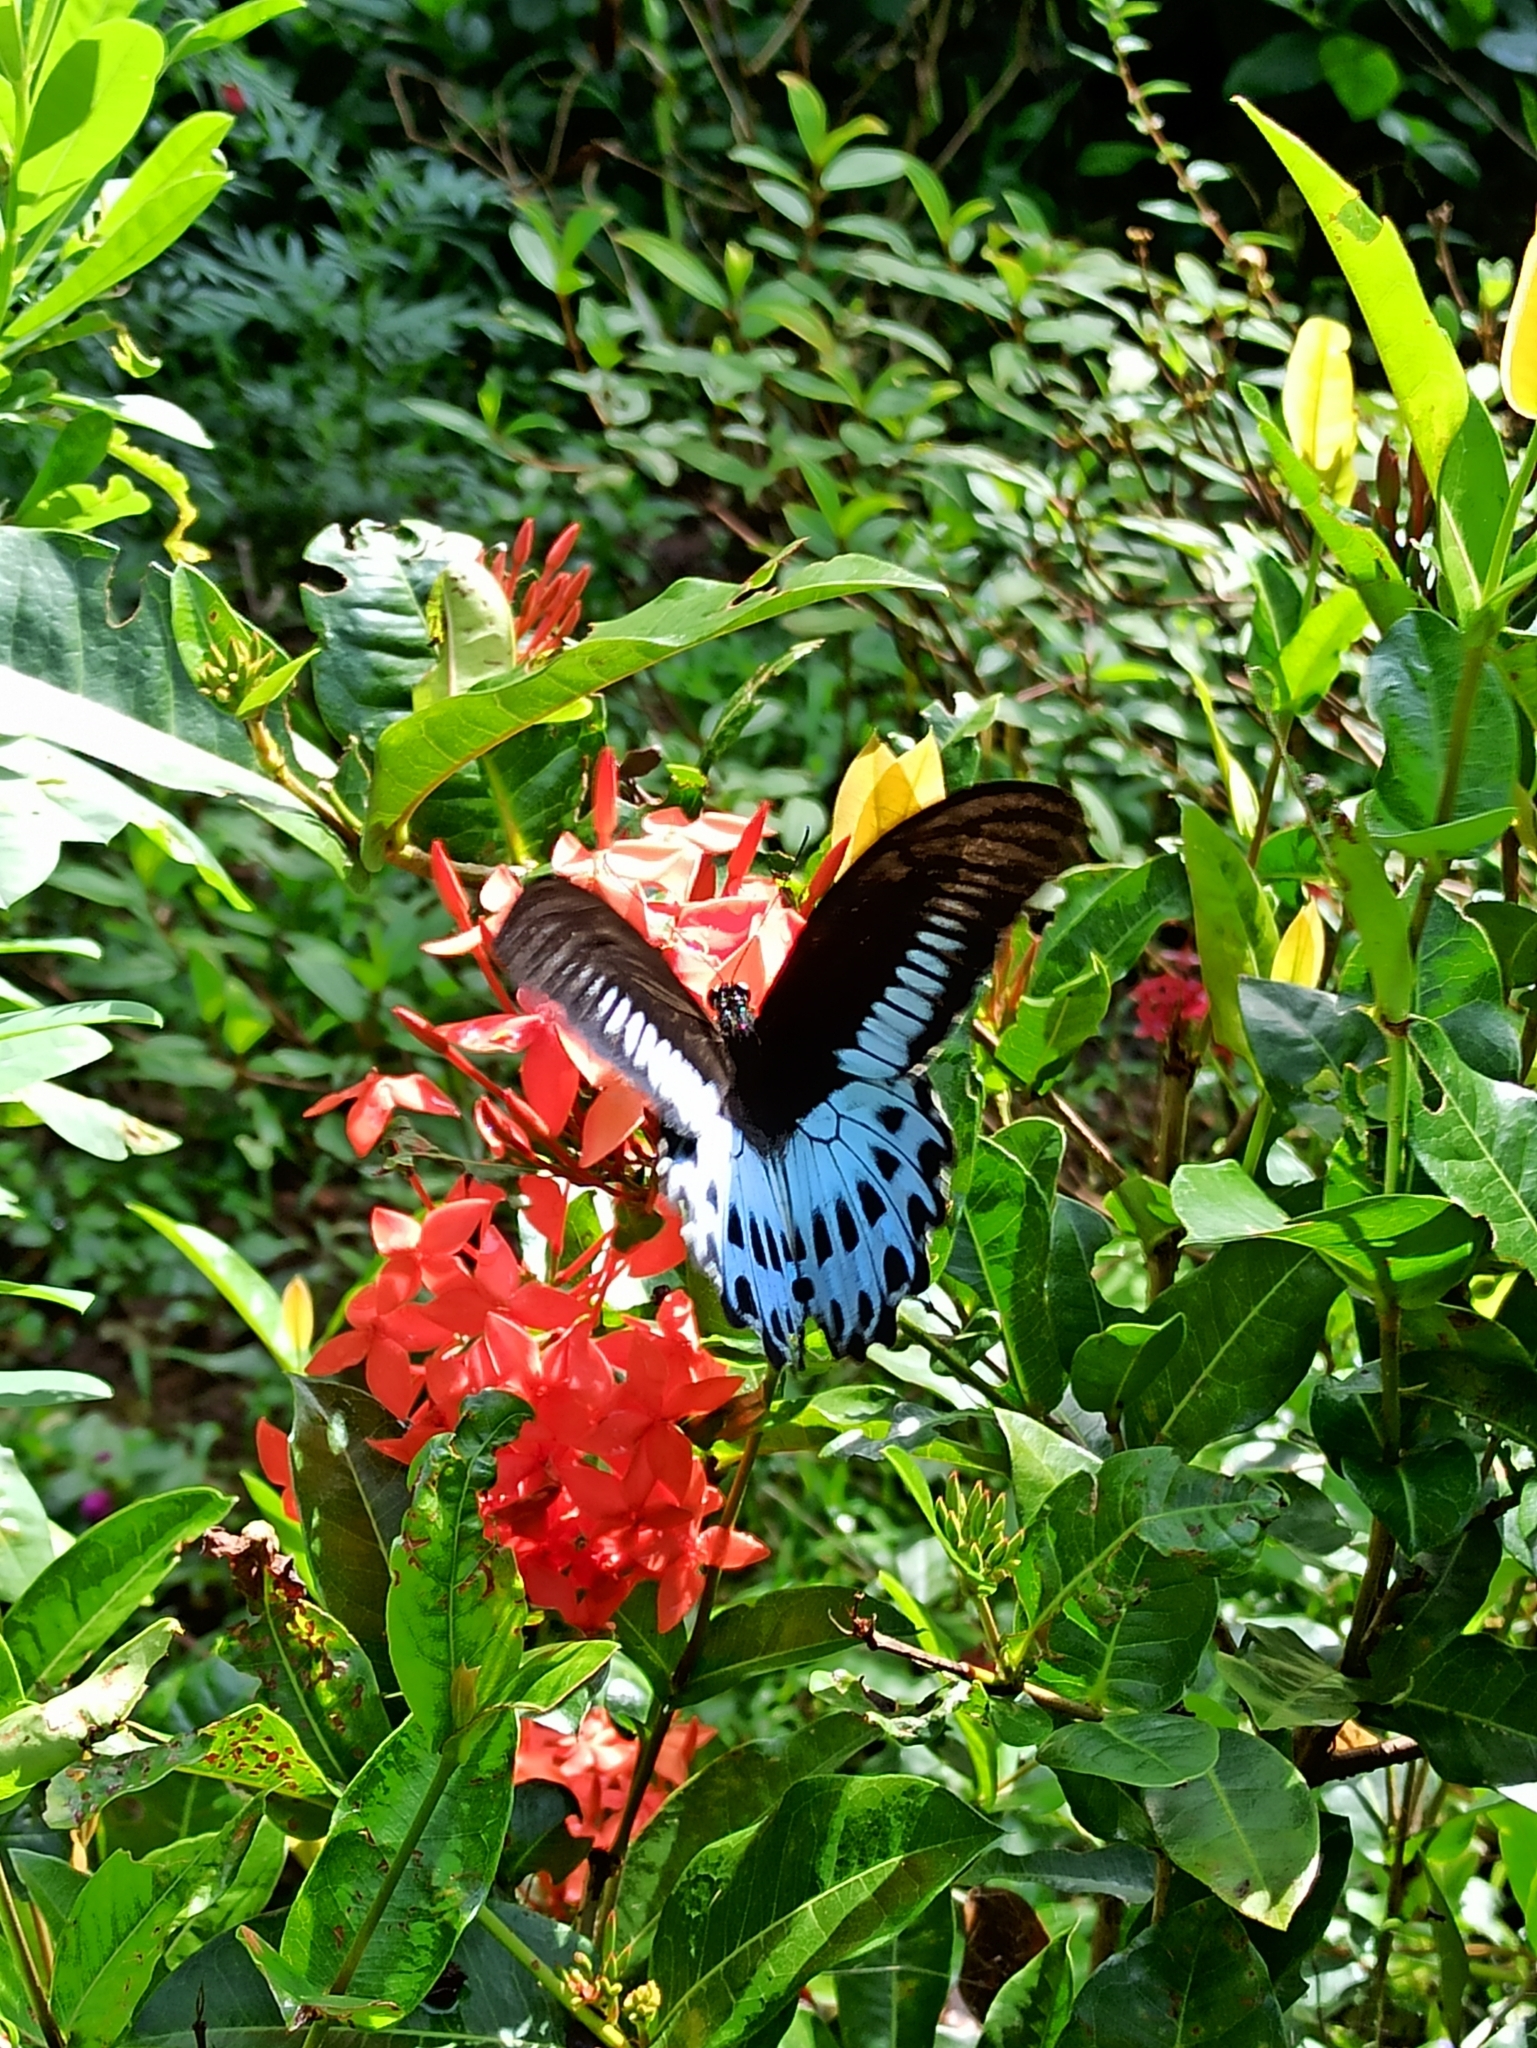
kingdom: Animalia
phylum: Arthropoda
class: Insecta
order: Lepidoptera
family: Papilionidae
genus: Papilio
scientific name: Papilio memnon
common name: Great mormon
